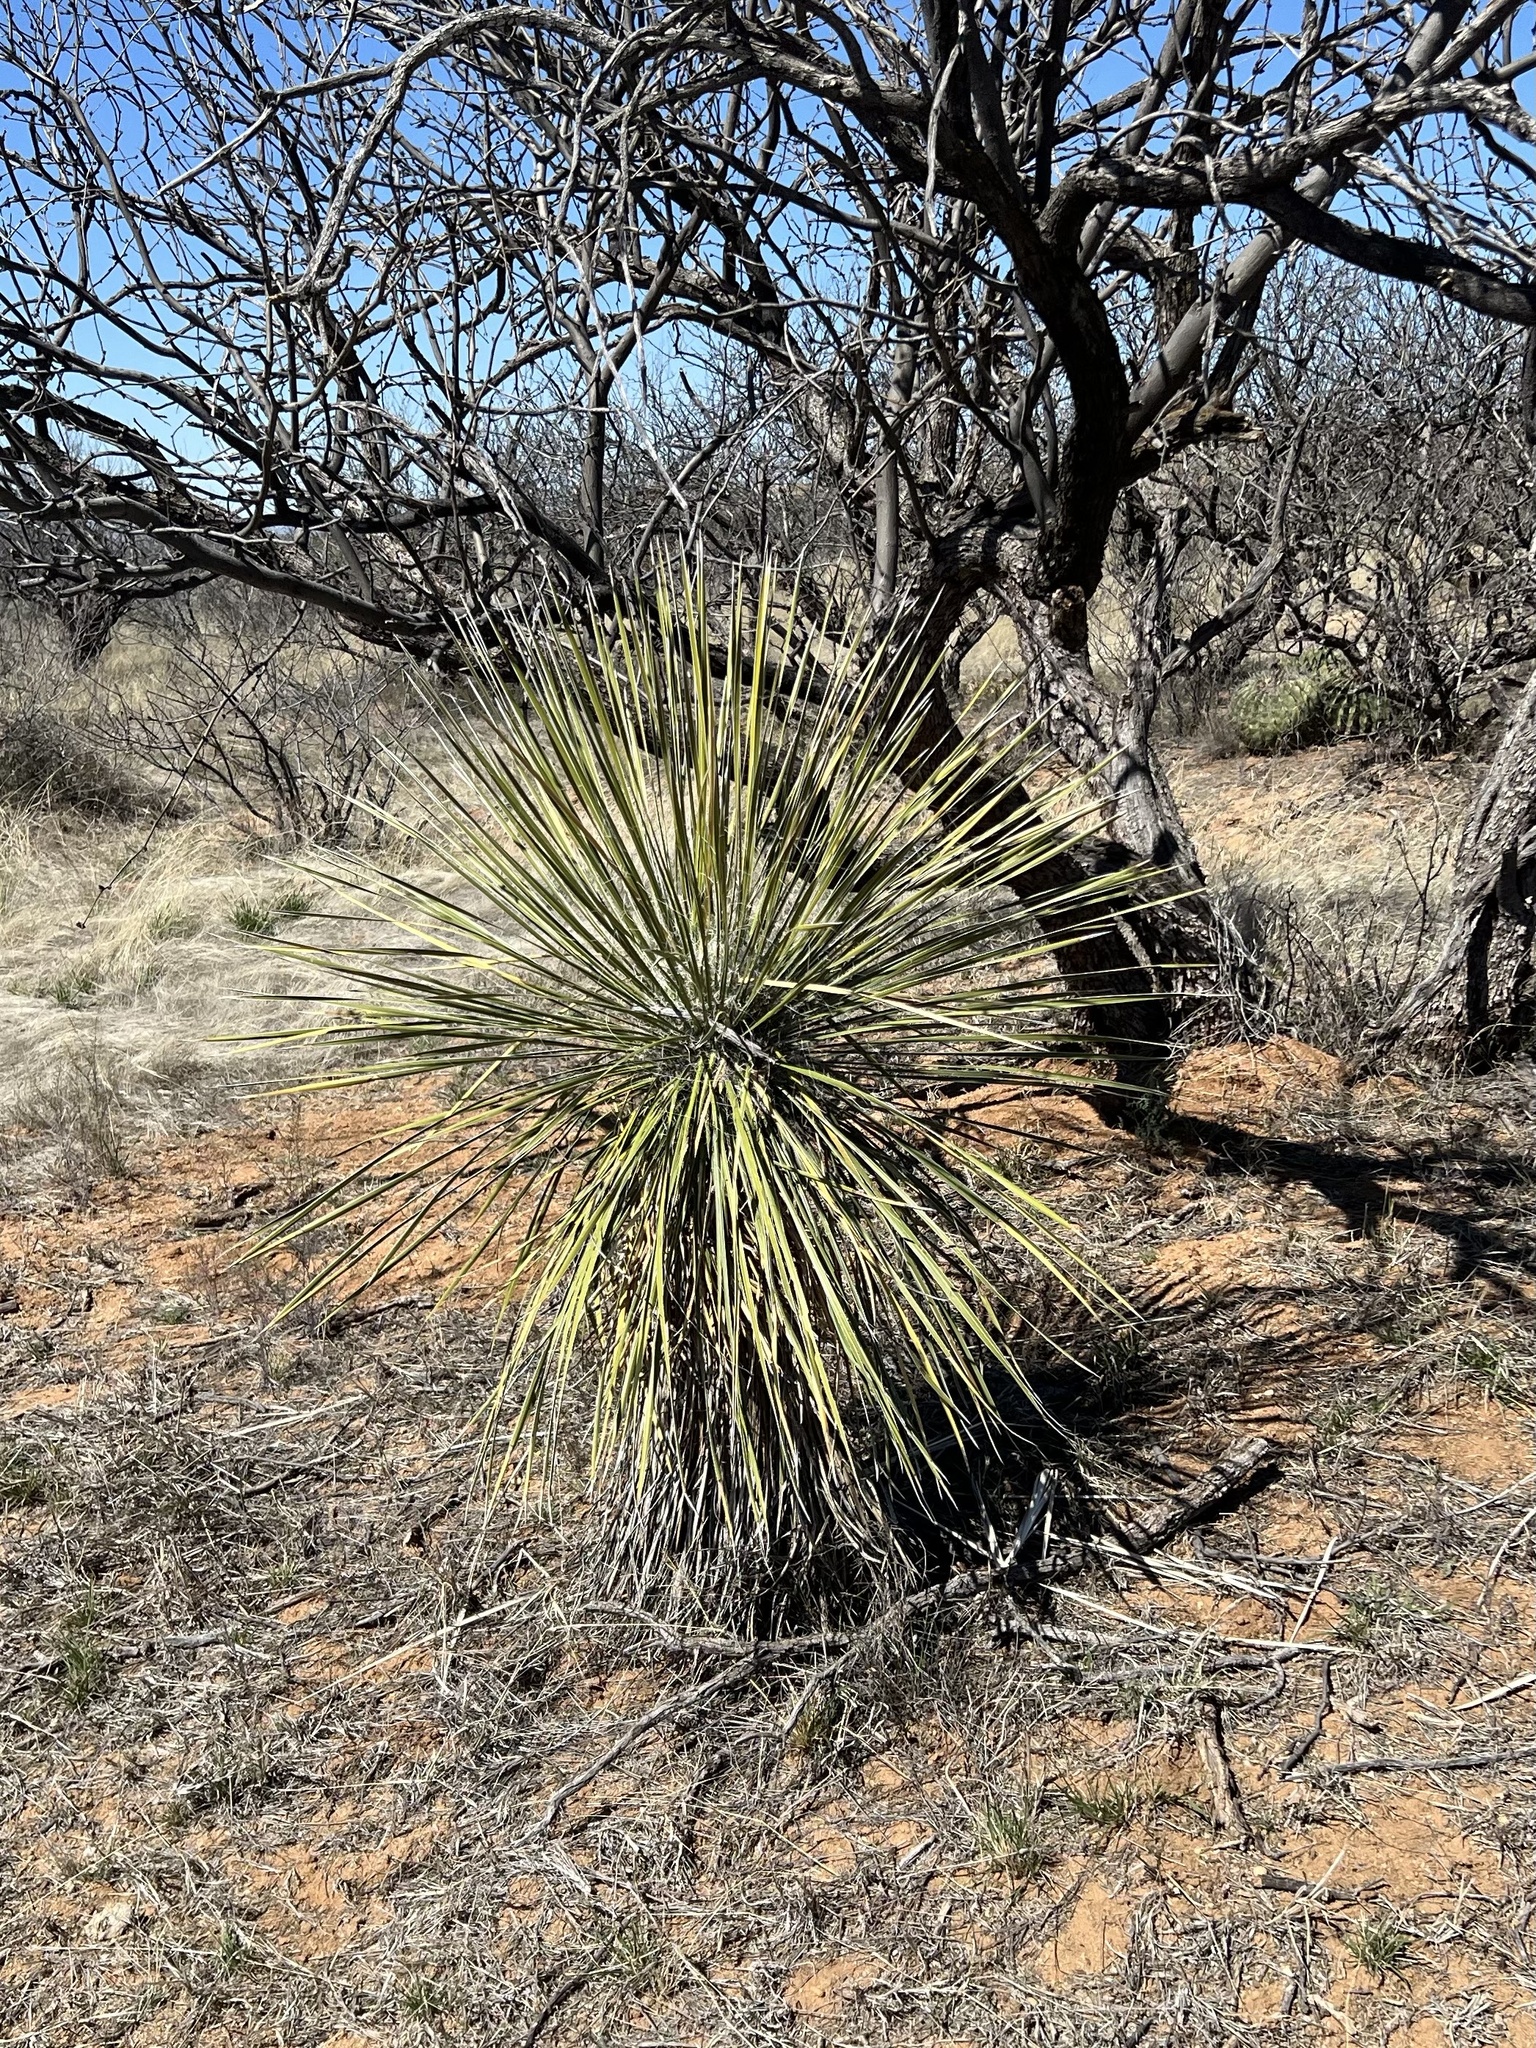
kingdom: Plantae
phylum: Tracheophyta
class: Liliopsida
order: Asparagales
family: Asparagaceae
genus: Yucca
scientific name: Yucca elata
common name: Palmella
